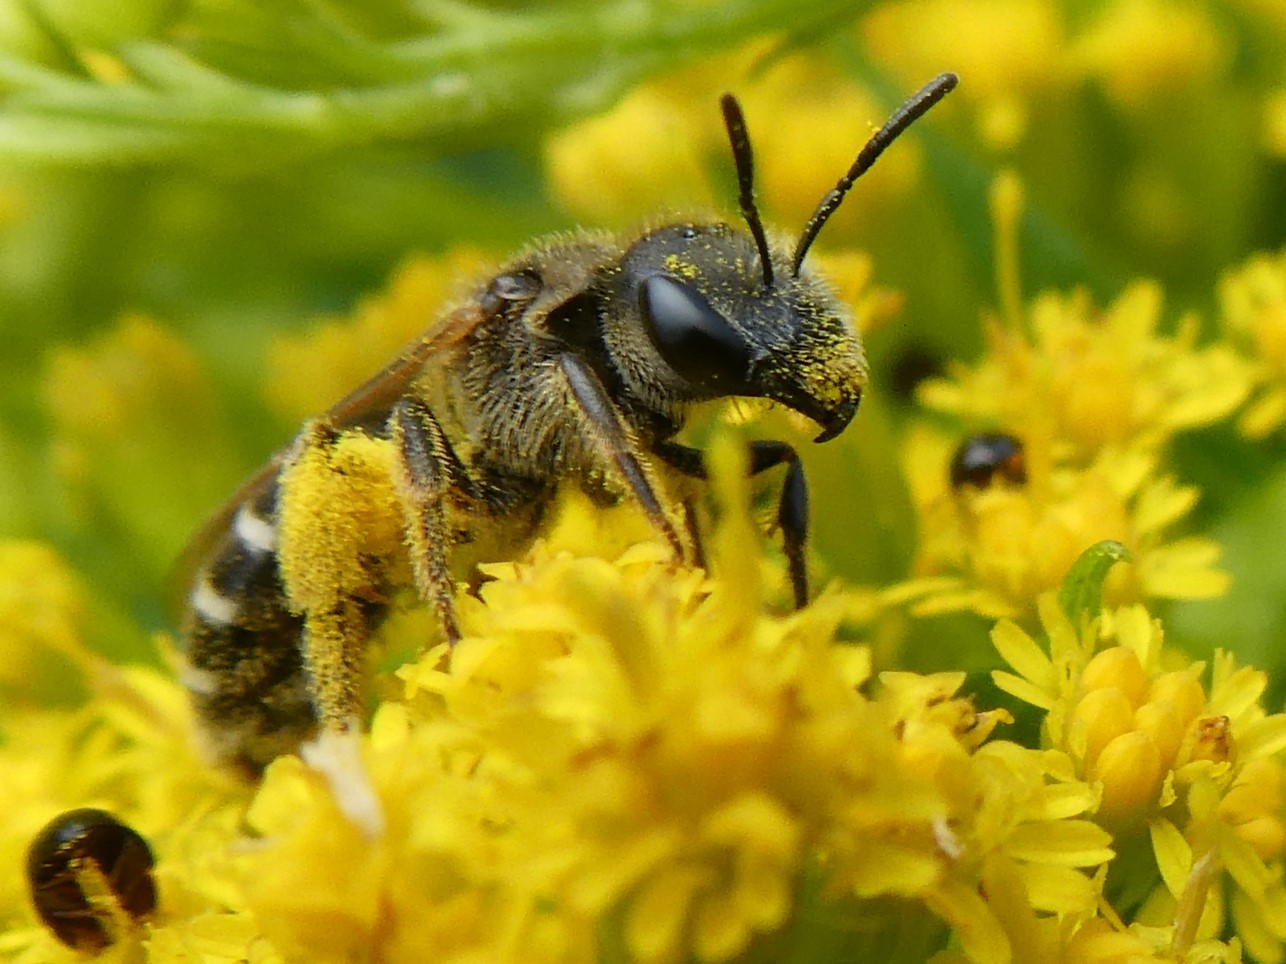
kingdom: Animalia
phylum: Arthropoda
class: Insecta
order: Hymenoptera
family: Halictidae
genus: Halictus
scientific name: Halictus ligatus
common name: Ligated furrow bee
